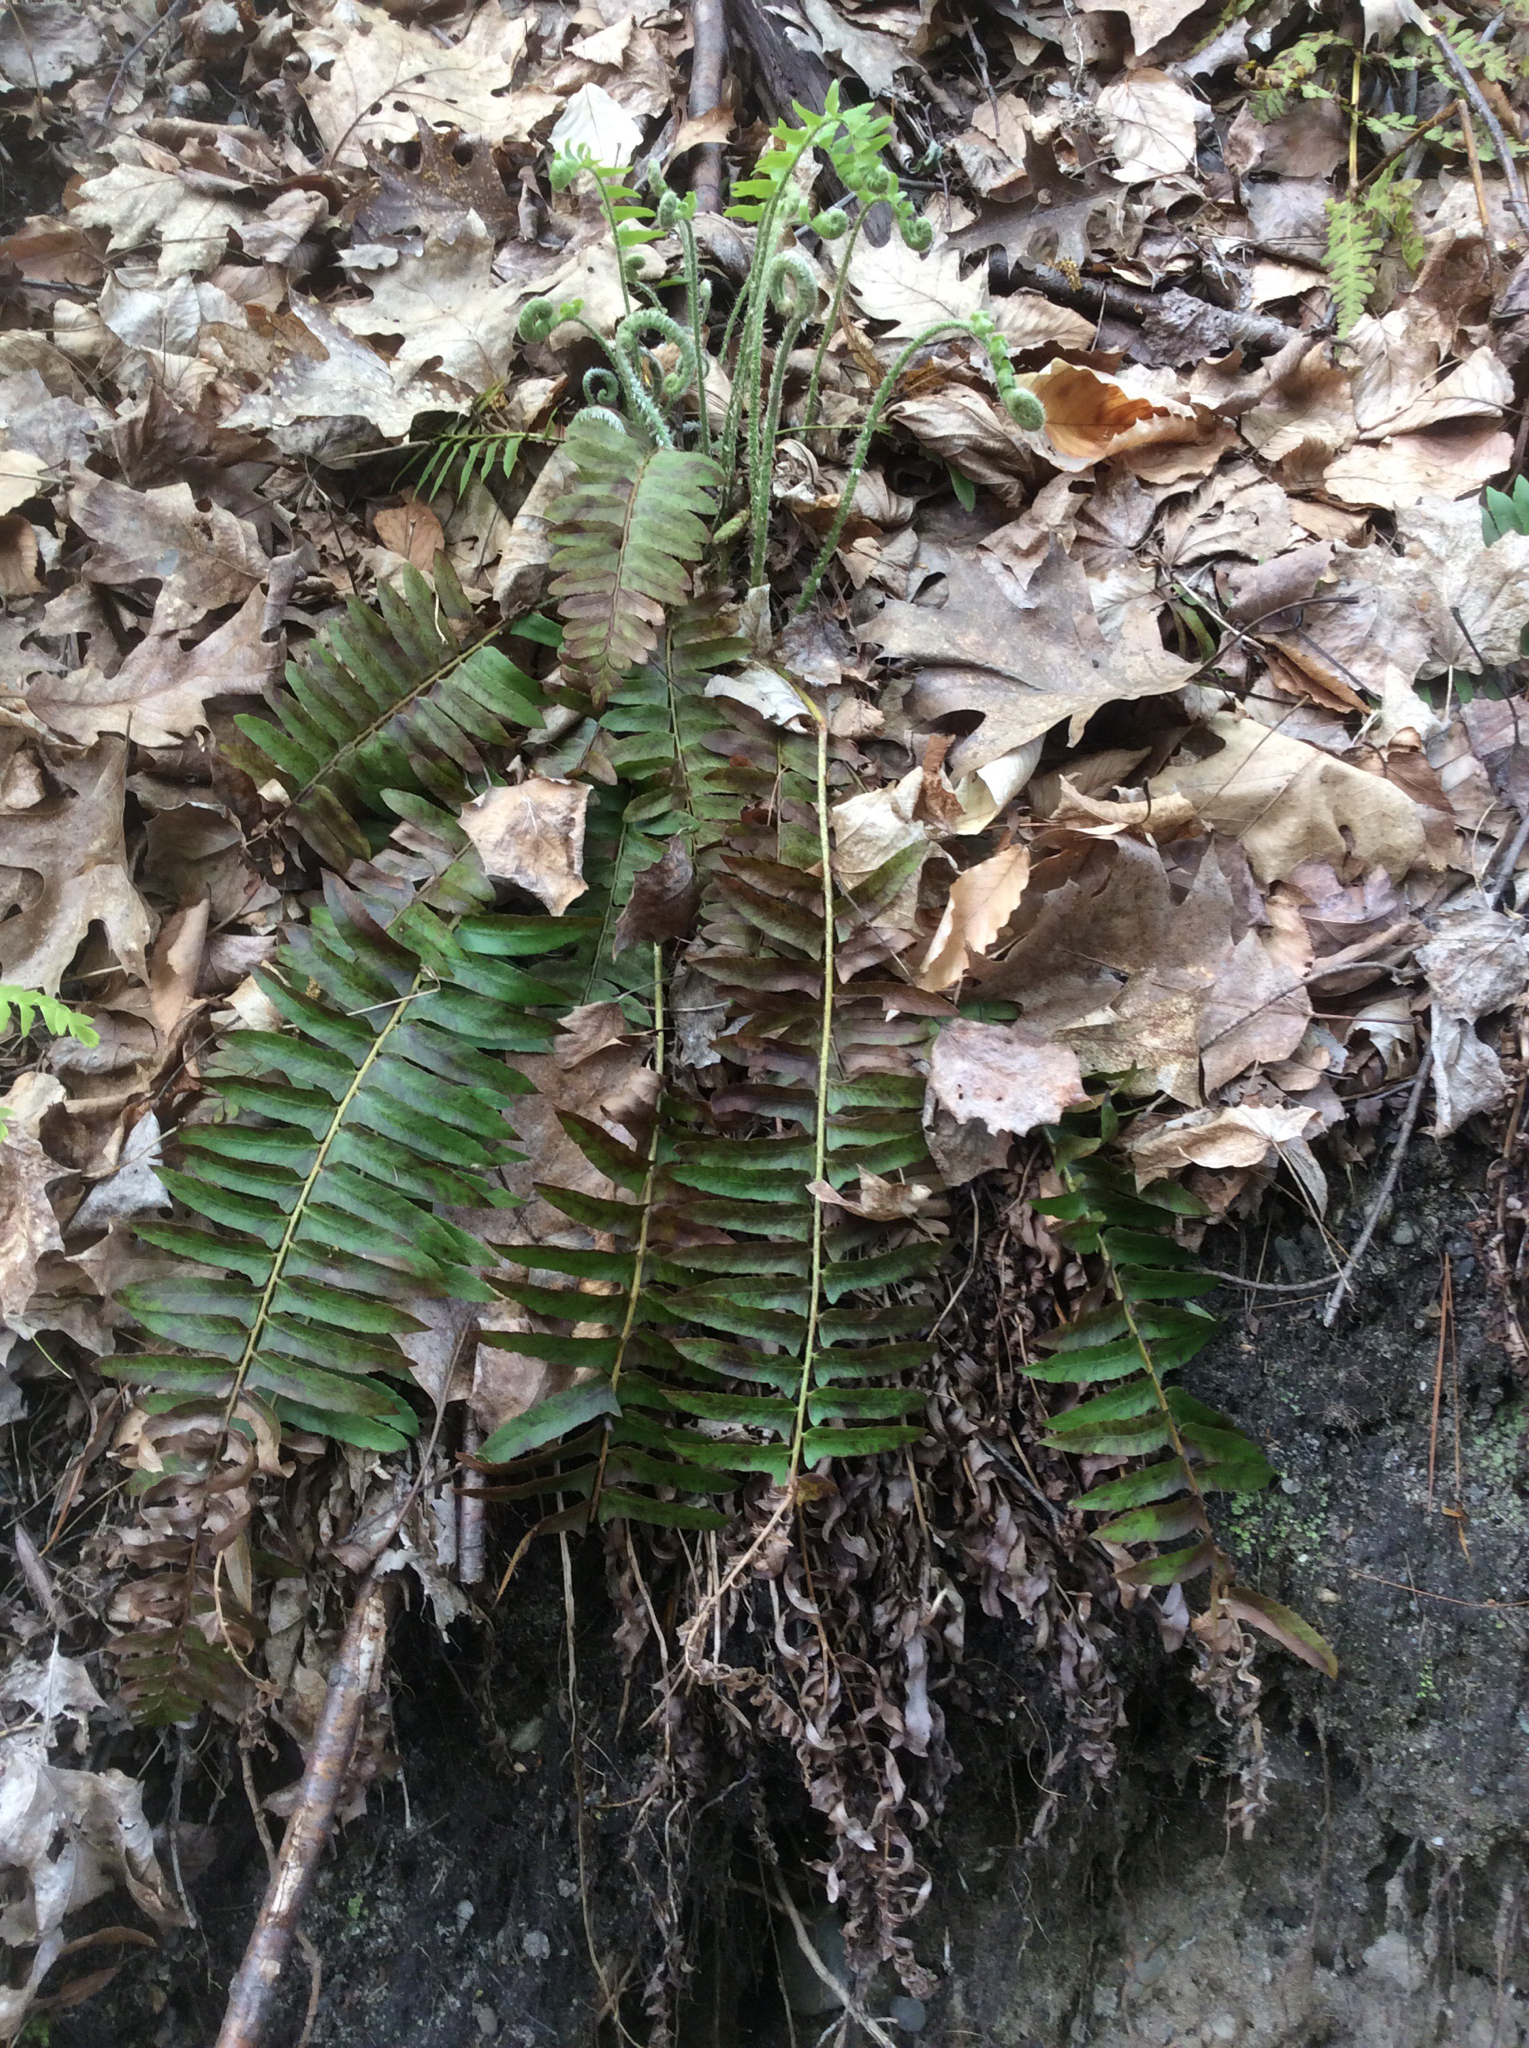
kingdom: Plantae
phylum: Tracheophyta
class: Polypodiopsida
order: Polypodiales
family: Dryopteridaceae
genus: Polystichum
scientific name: Polystichum acrostichoides
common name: Christmas fern
